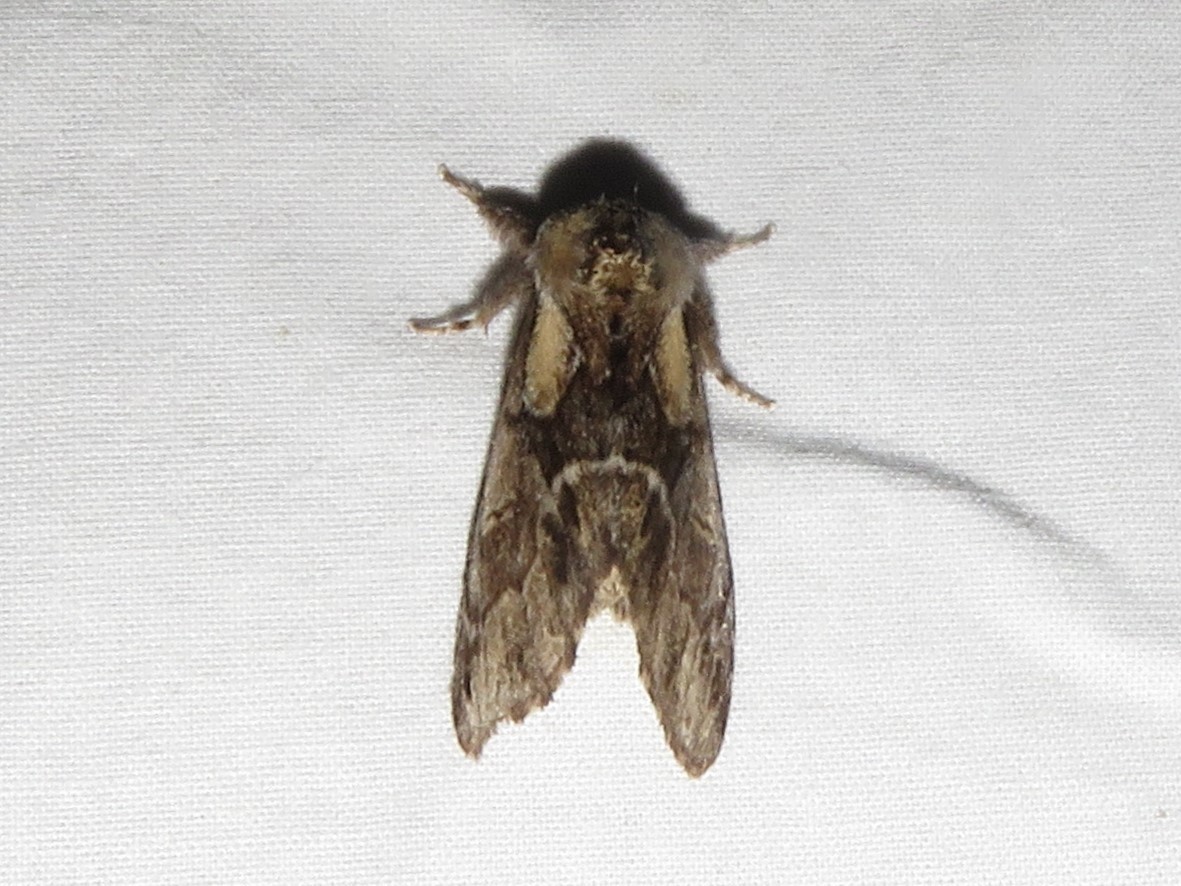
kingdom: Animalia
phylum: Arthropoda
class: Insecta
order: Lepidoptera
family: Notodontidae
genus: Paraeschra
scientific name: Paraeschra georgica
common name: Georgian prominent
